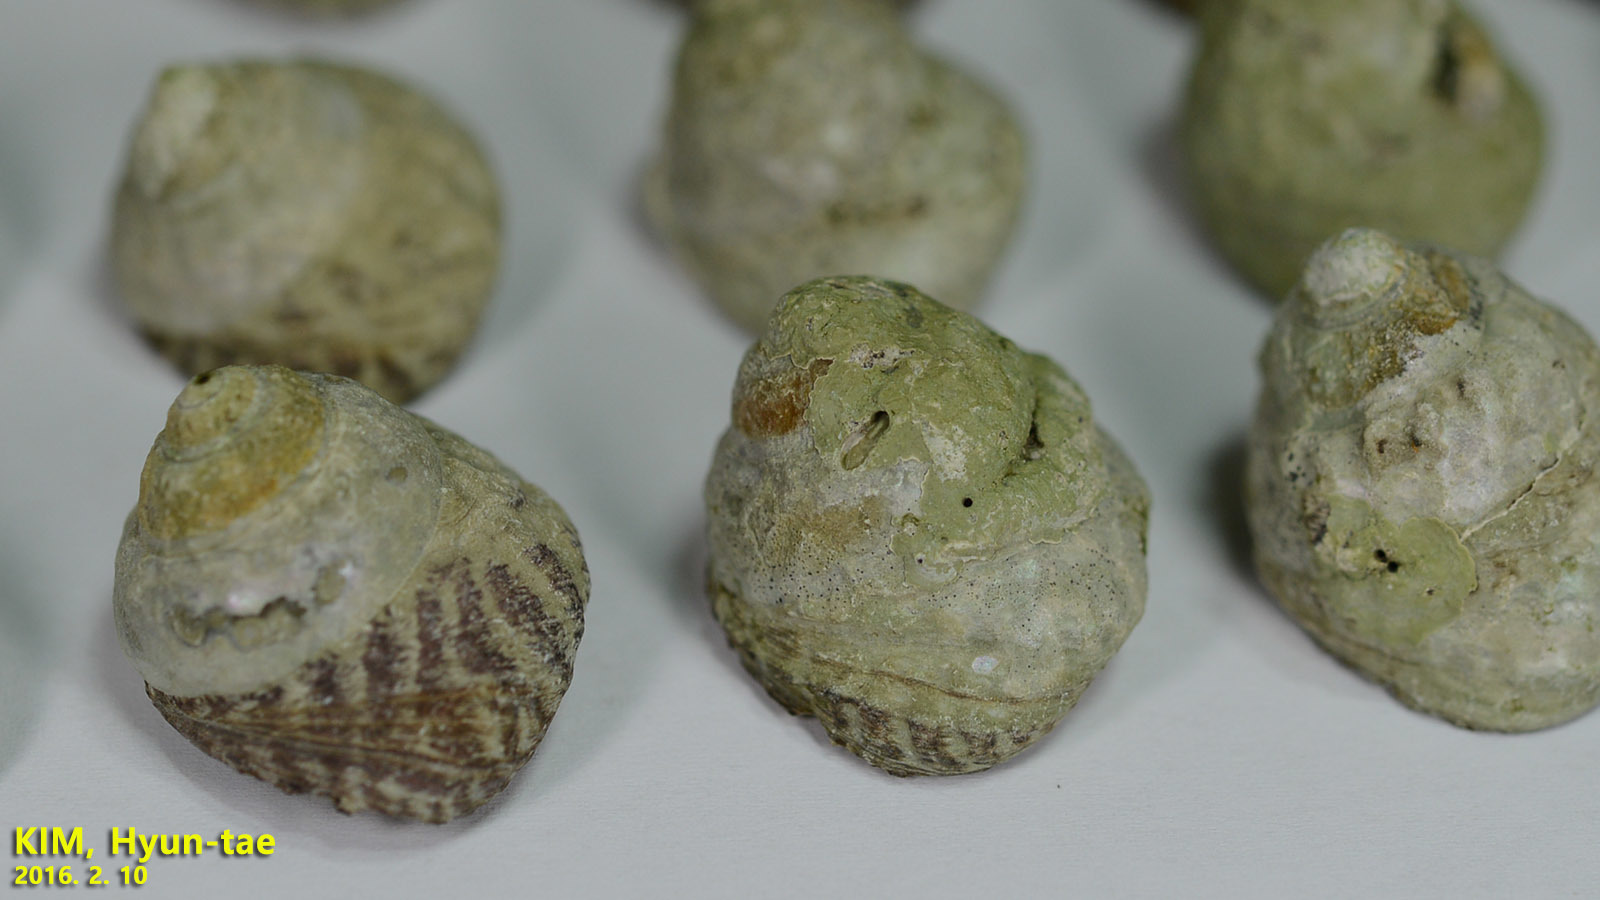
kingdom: Animalia
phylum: Mollusca
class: Gastropoda
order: Trochida
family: Tegulidae
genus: Tegula
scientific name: Tegula rustica
